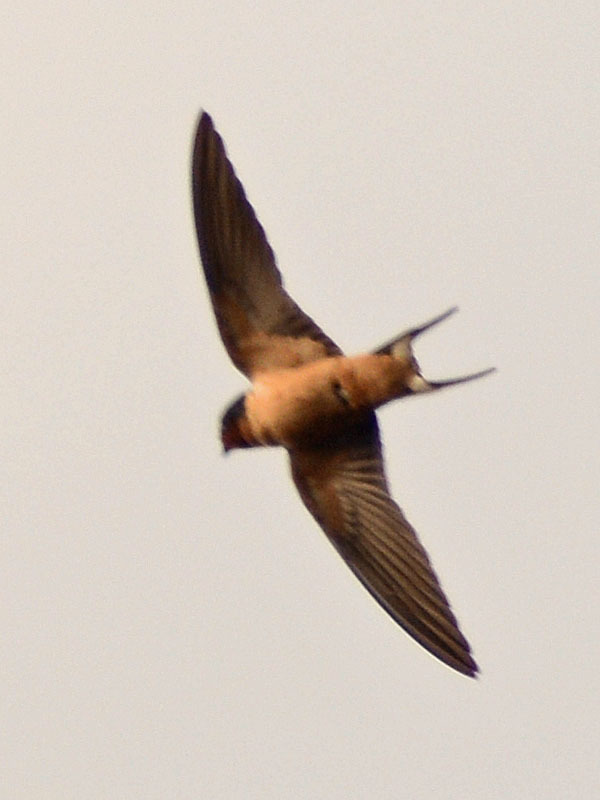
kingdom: Animalia
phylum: Chordata
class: Aves
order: Passeriformes
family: Hirundinidae
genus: Hirundo
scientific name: Hirundo rustica
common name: Barn swallow
